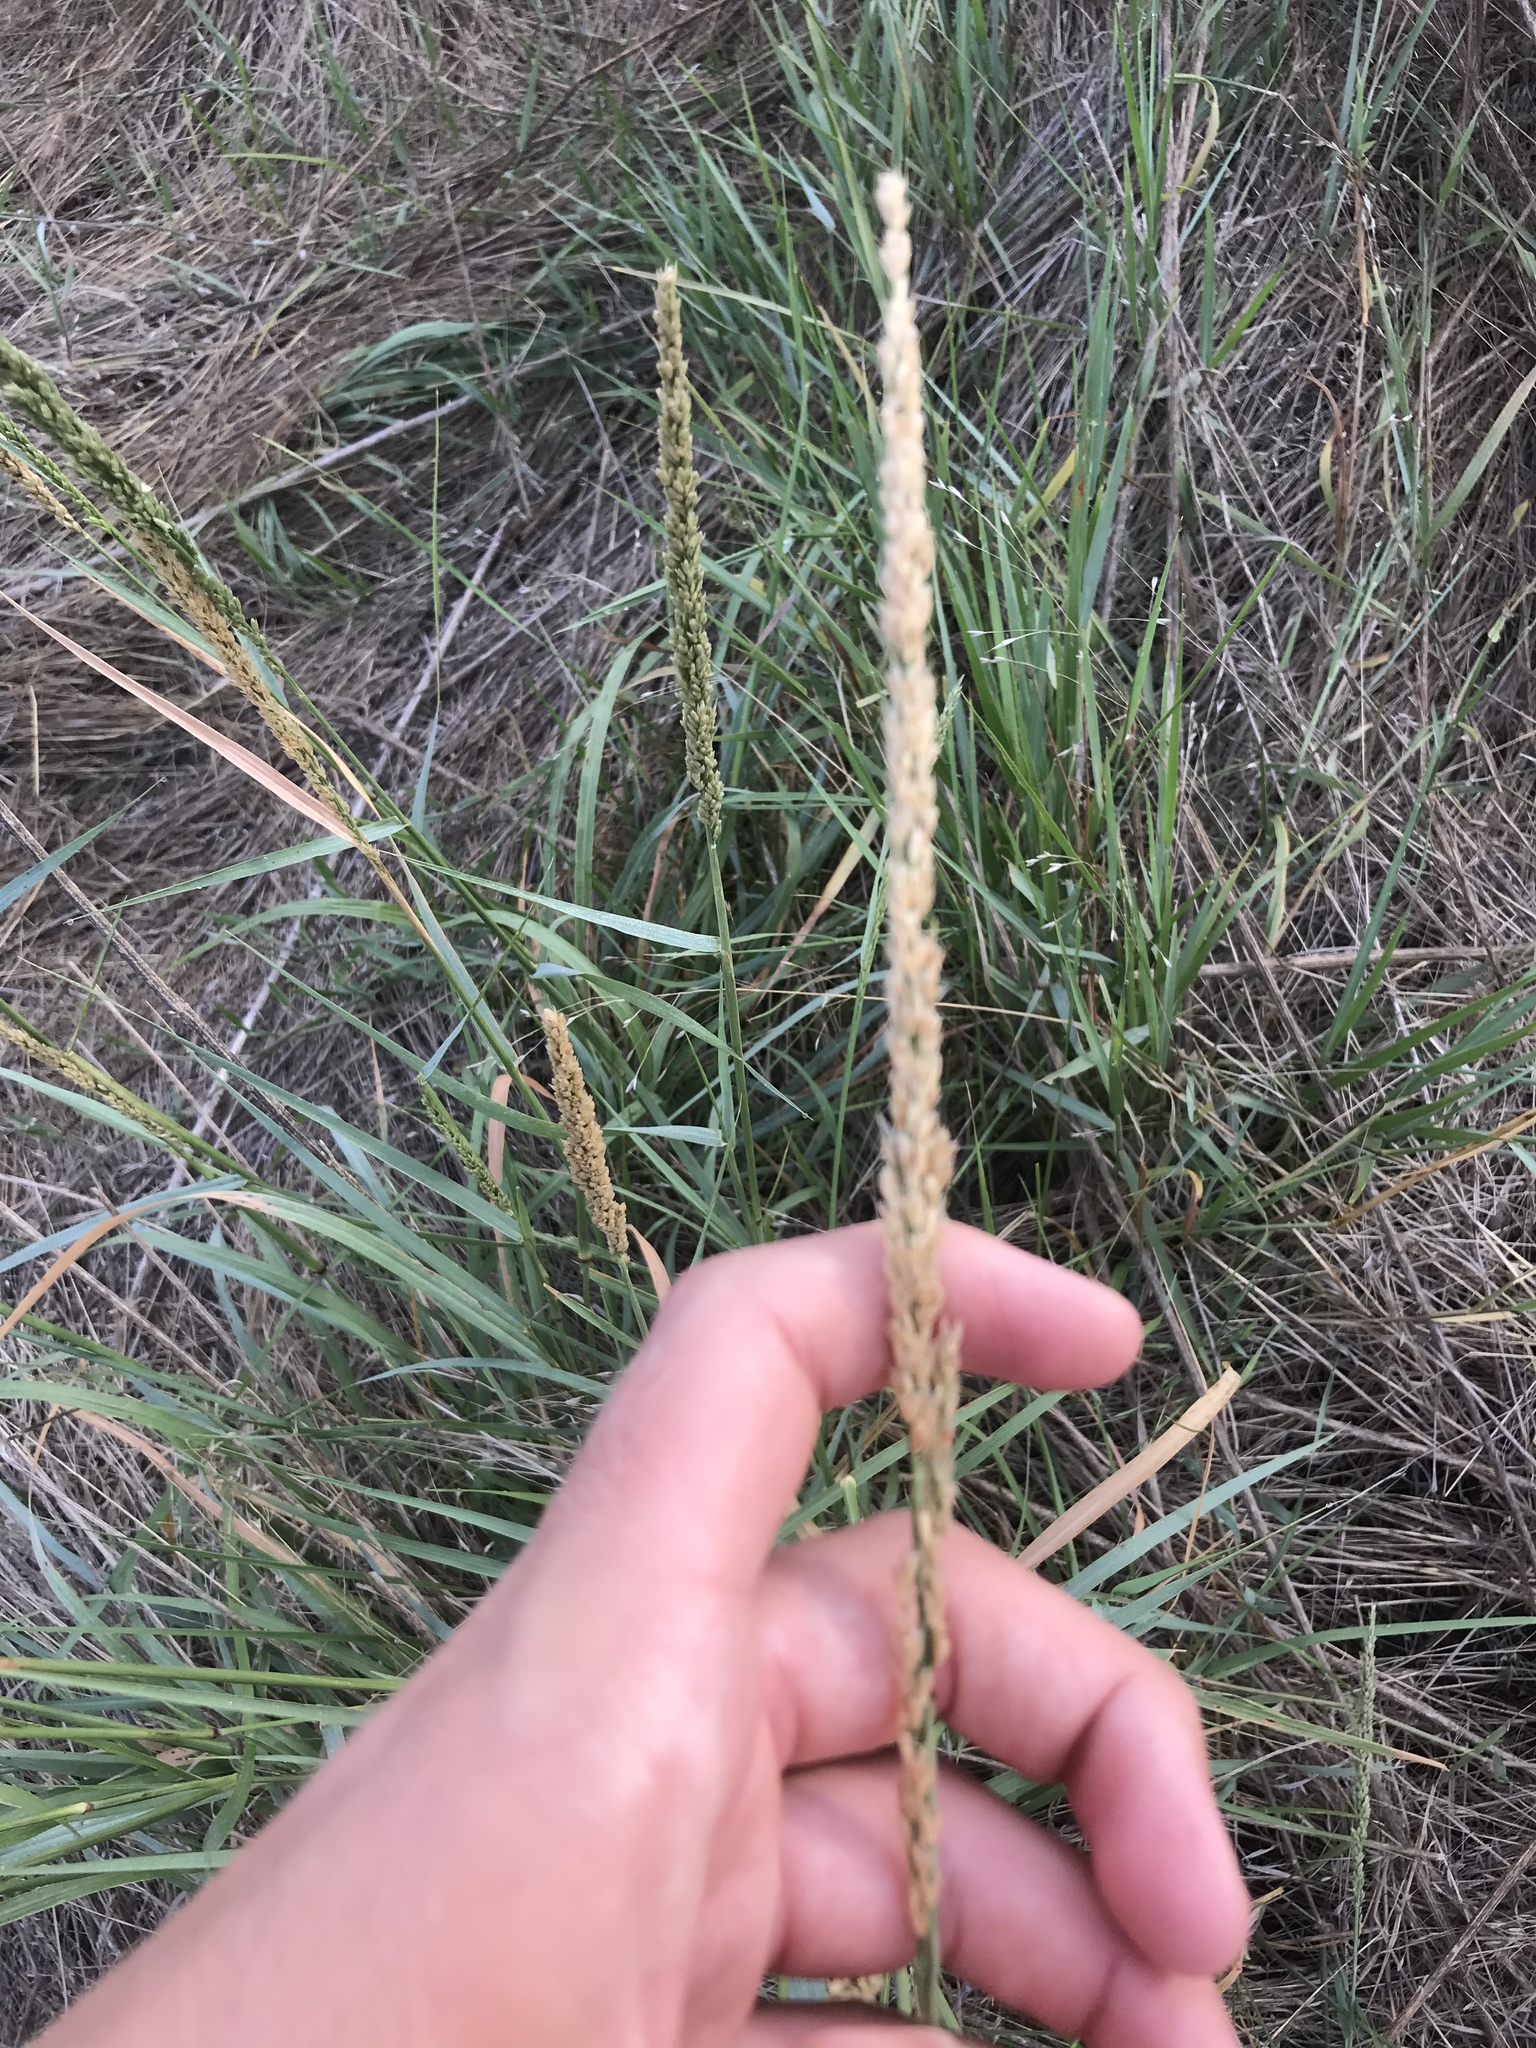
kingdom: Plantae
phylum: Tracheophyta
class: Liliopsida
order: Poales
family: Poaceae
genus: Tridens
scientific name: Tridens albescens
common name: White tridens
